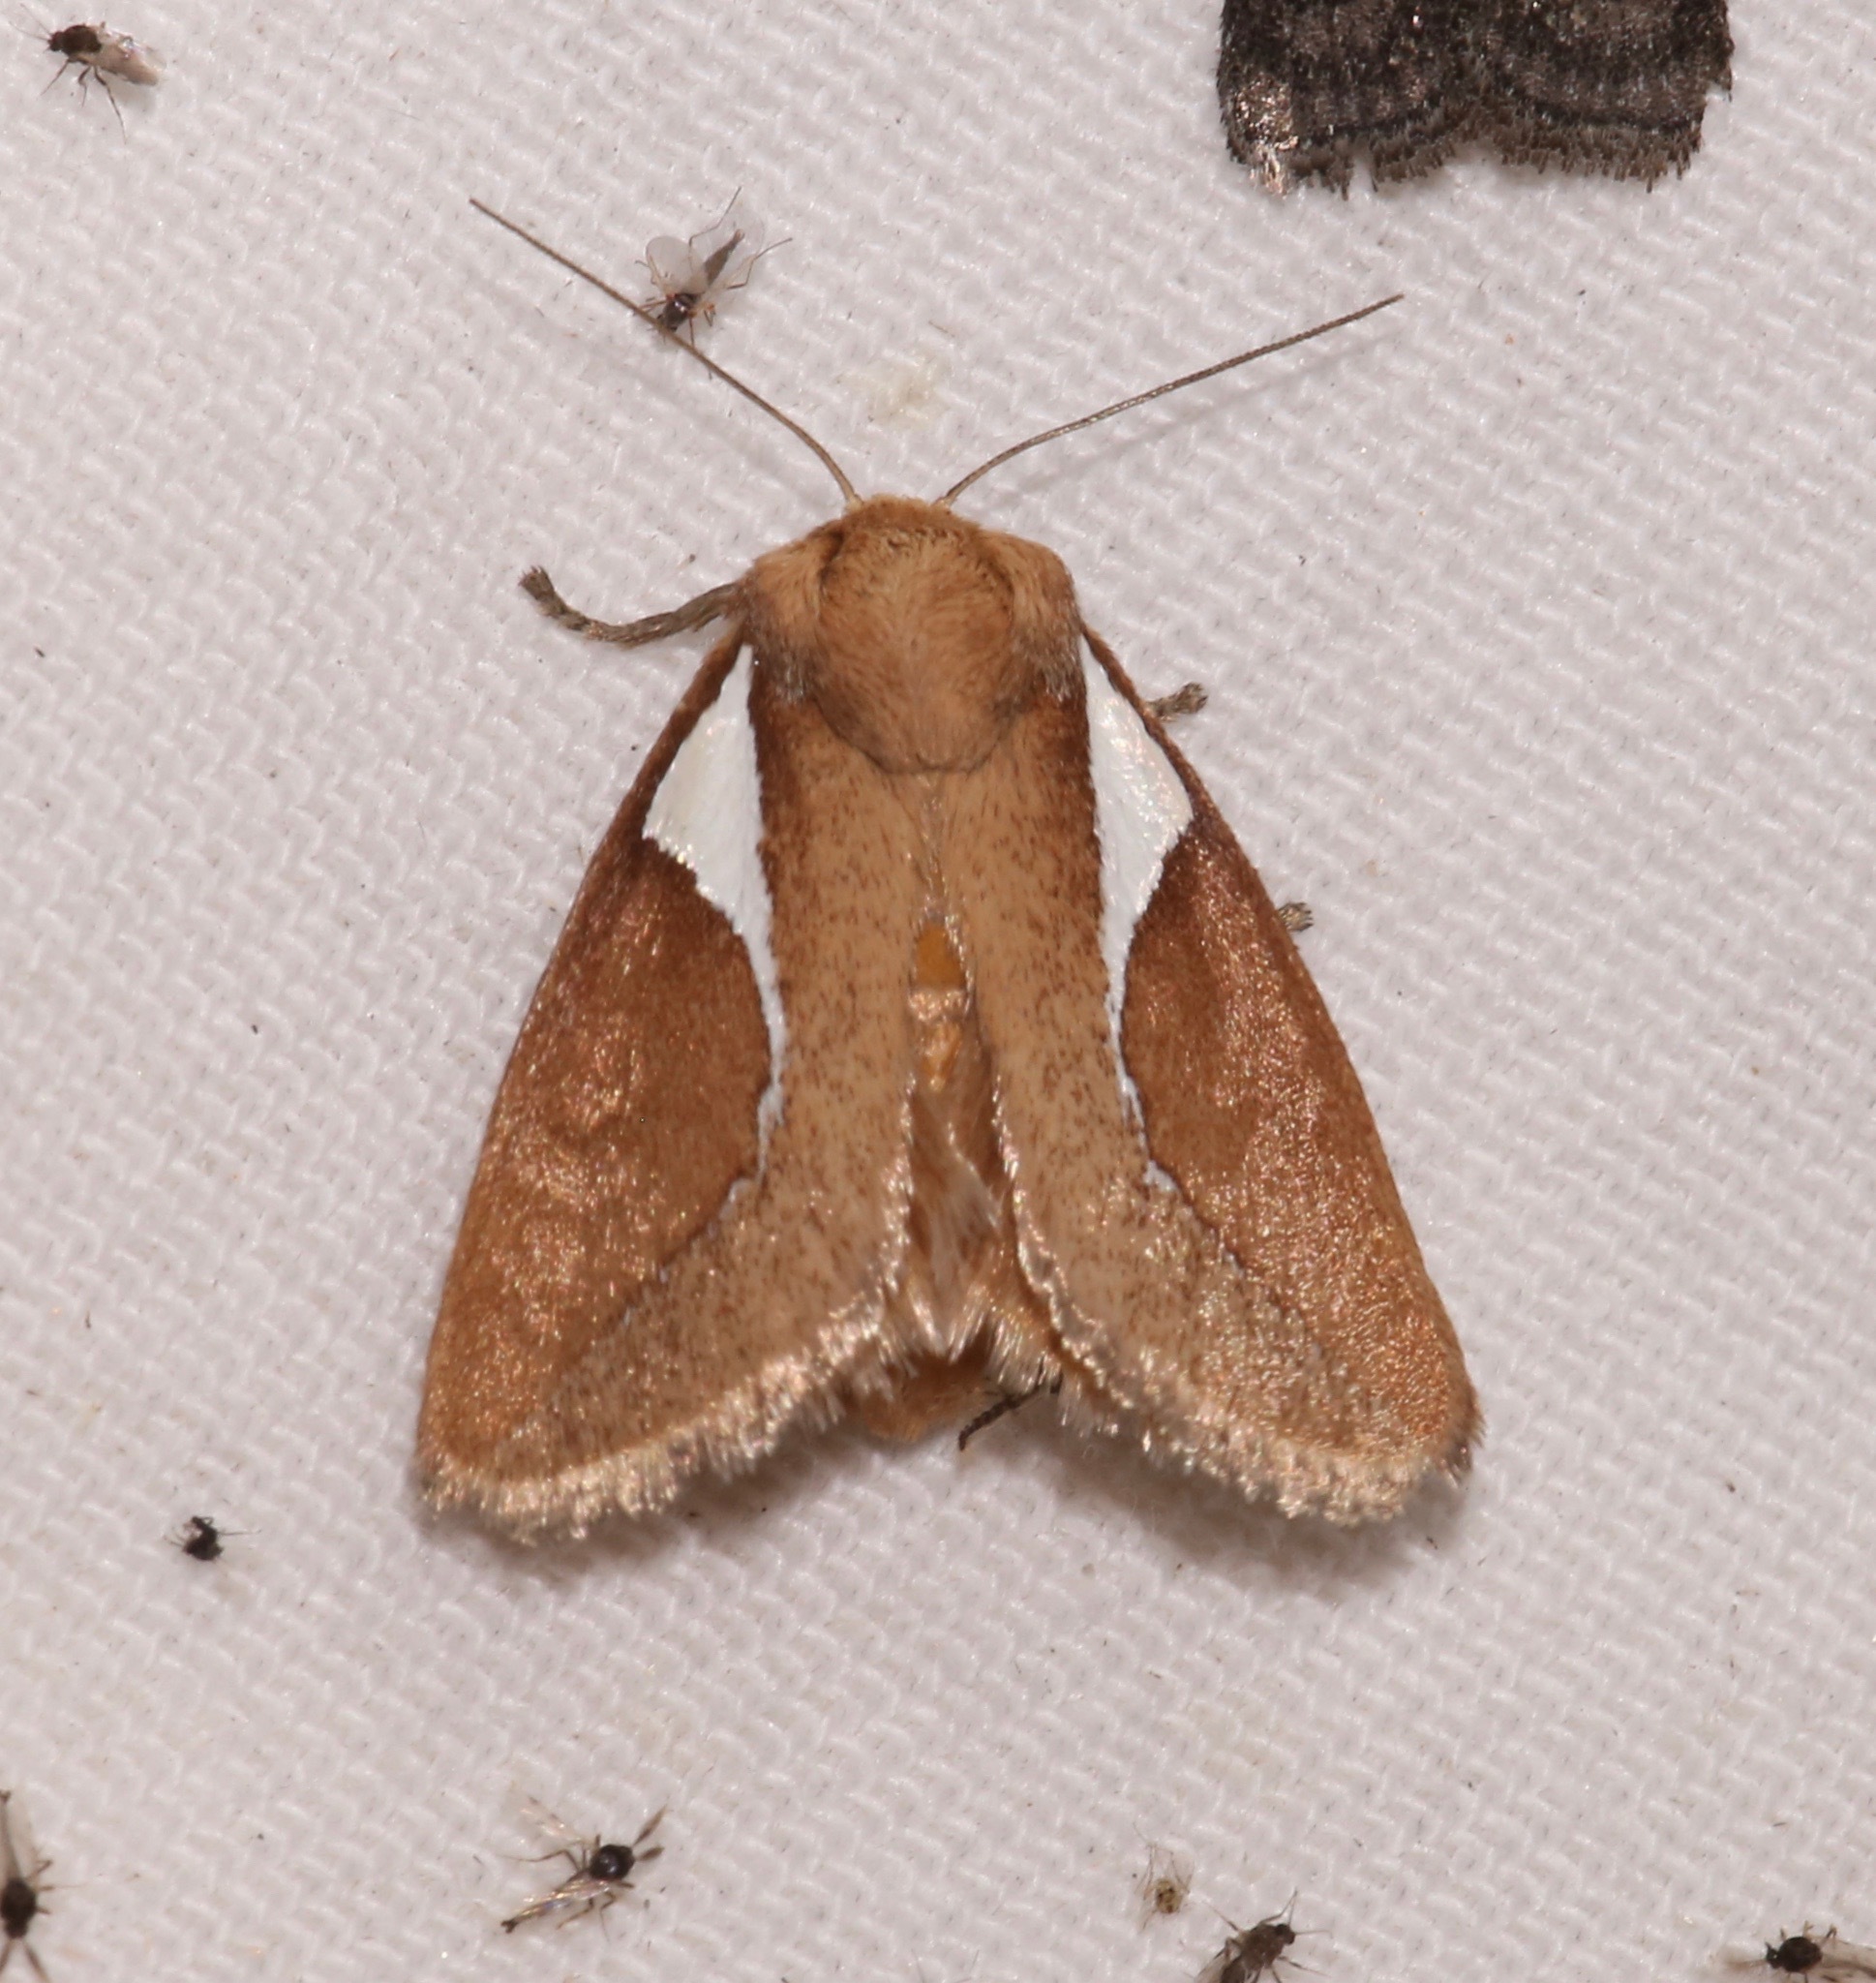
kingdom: Animalia
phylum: Arthropoda
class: Insecta
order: Lepidoptera
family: Limacodidae
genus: Prolimacodes
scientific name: Prolimacodes trigona
